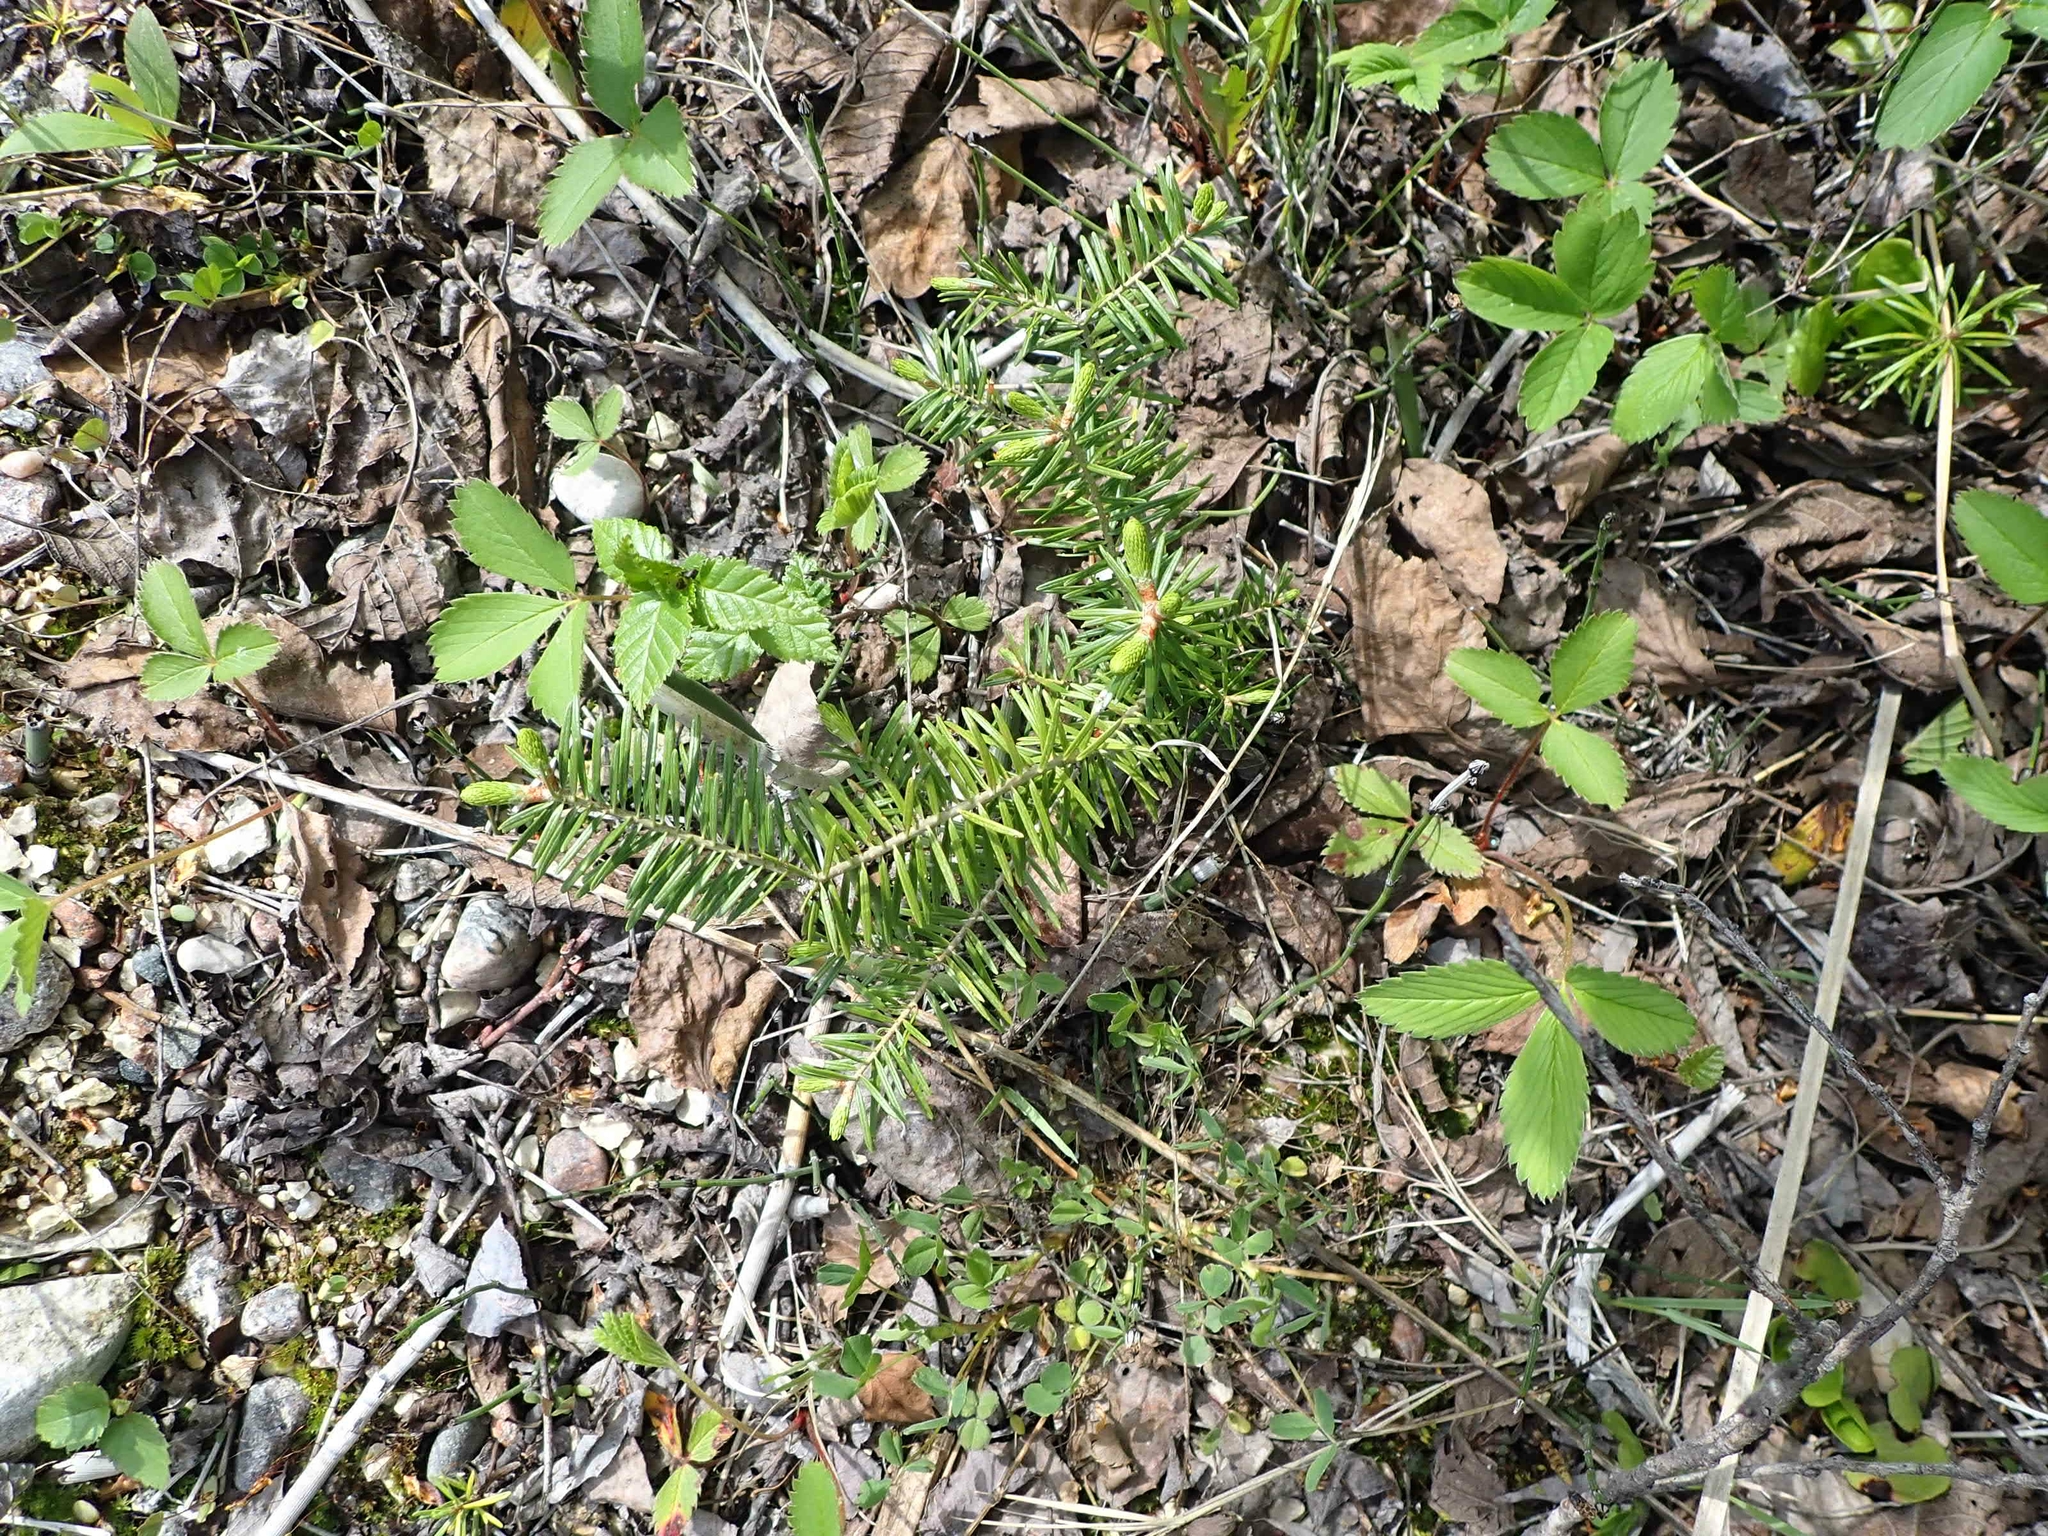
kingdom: Plantae
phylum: Tracheophyta
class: Pinopsida
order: Pinales
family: Pinaceae
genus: Abies
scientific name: Abies balsamea
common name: Balsam fir
